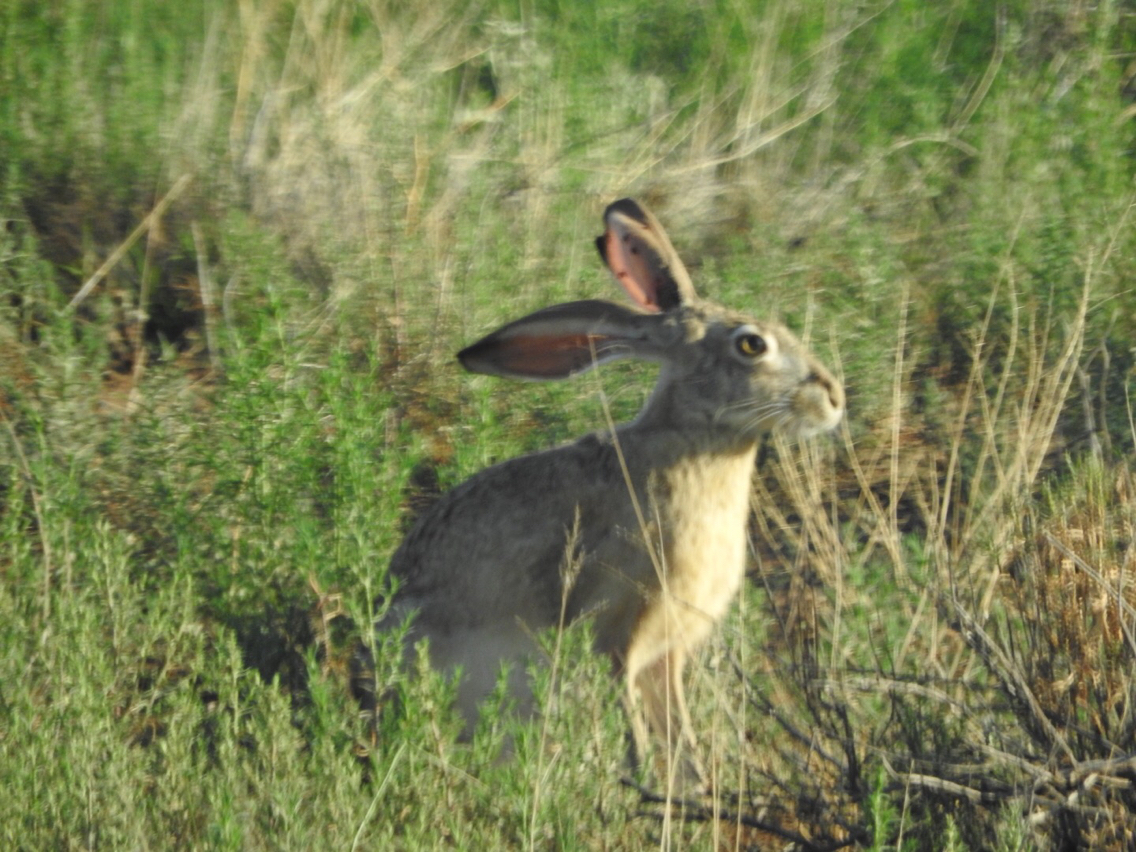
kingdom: Animalia
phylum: Chordata
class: Mammalia
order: Lagomorpha
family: Leporidae
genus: Lepus
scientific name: Lepus californicus
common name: Black-tailed jackrabbit
